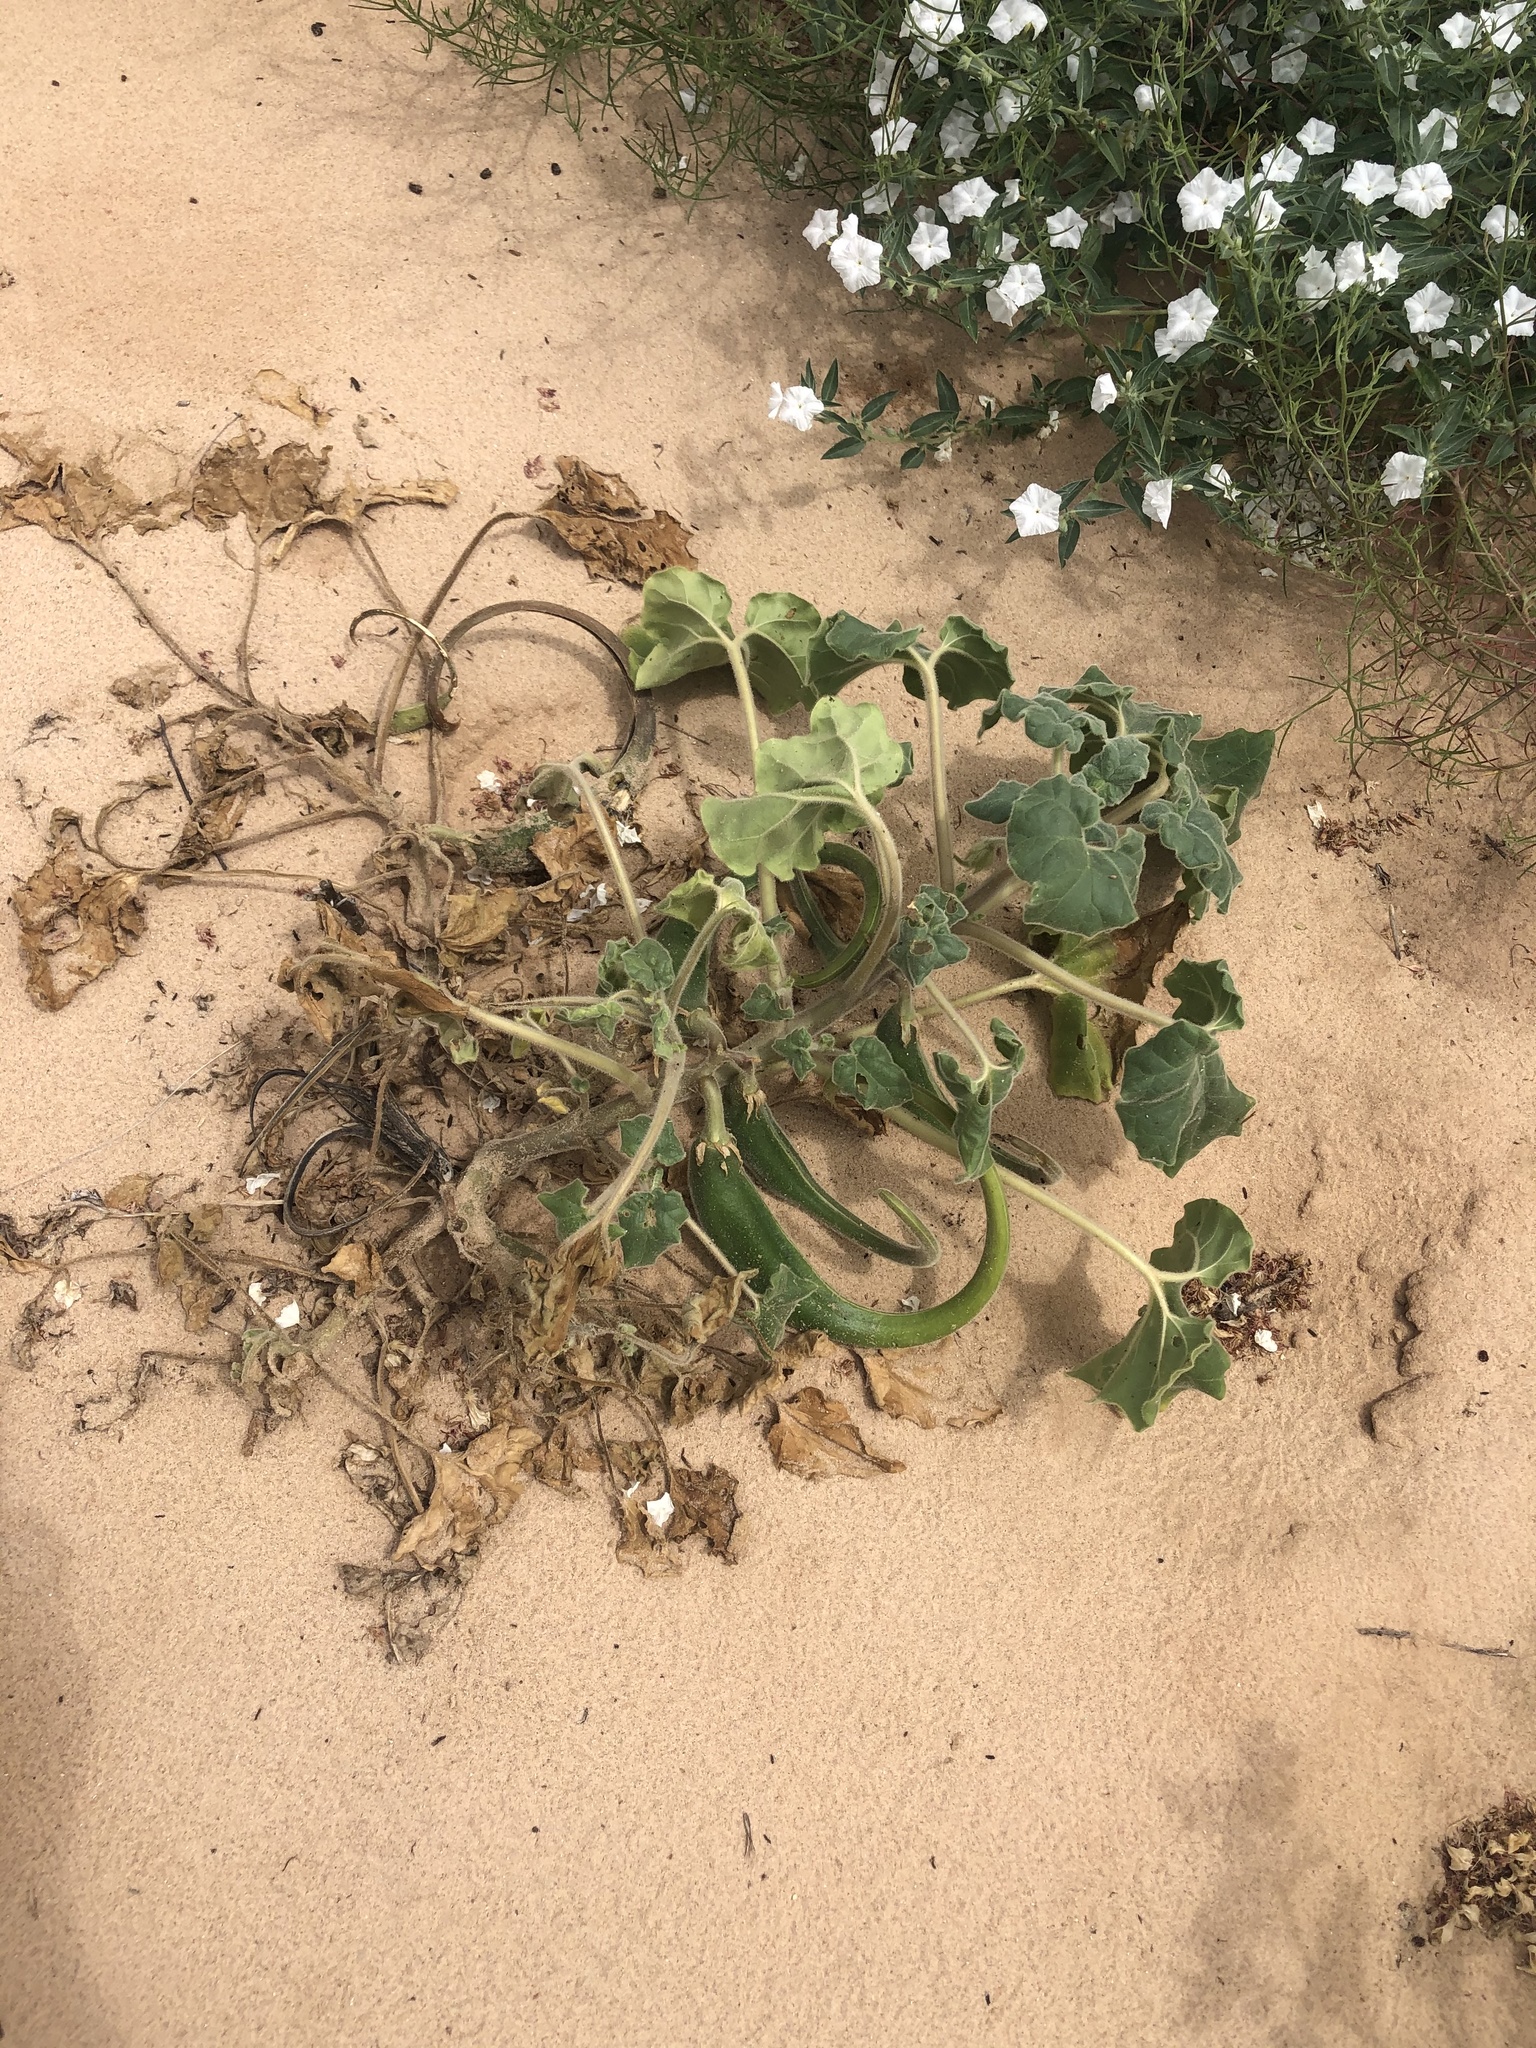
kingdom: Plantae
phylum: Tracheophyta
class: Magnoliopsida
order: Lamiales
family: Martyniaceae
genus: Proboscidea
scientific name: Proboscidea sabulosa
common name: Sand-dune devil's claw
